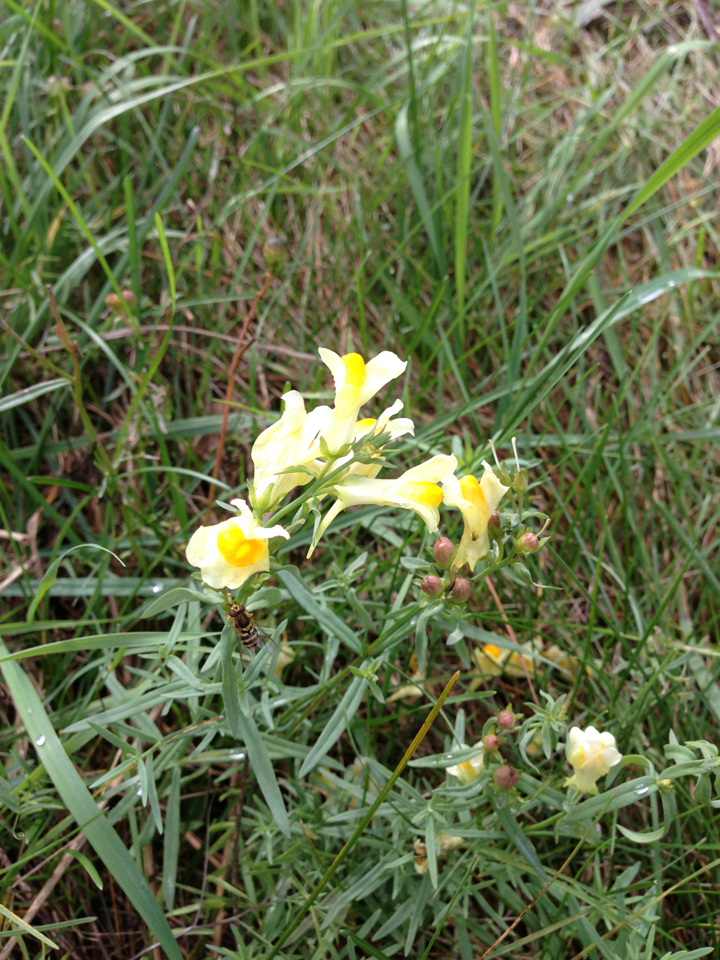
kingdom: Plantae
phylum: Tracheophyta
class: Magnoliopsida
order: Lamiales
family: Plantaginaceae
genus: Linaria
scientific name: Linaria vulgaris
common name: Butter and eggs
